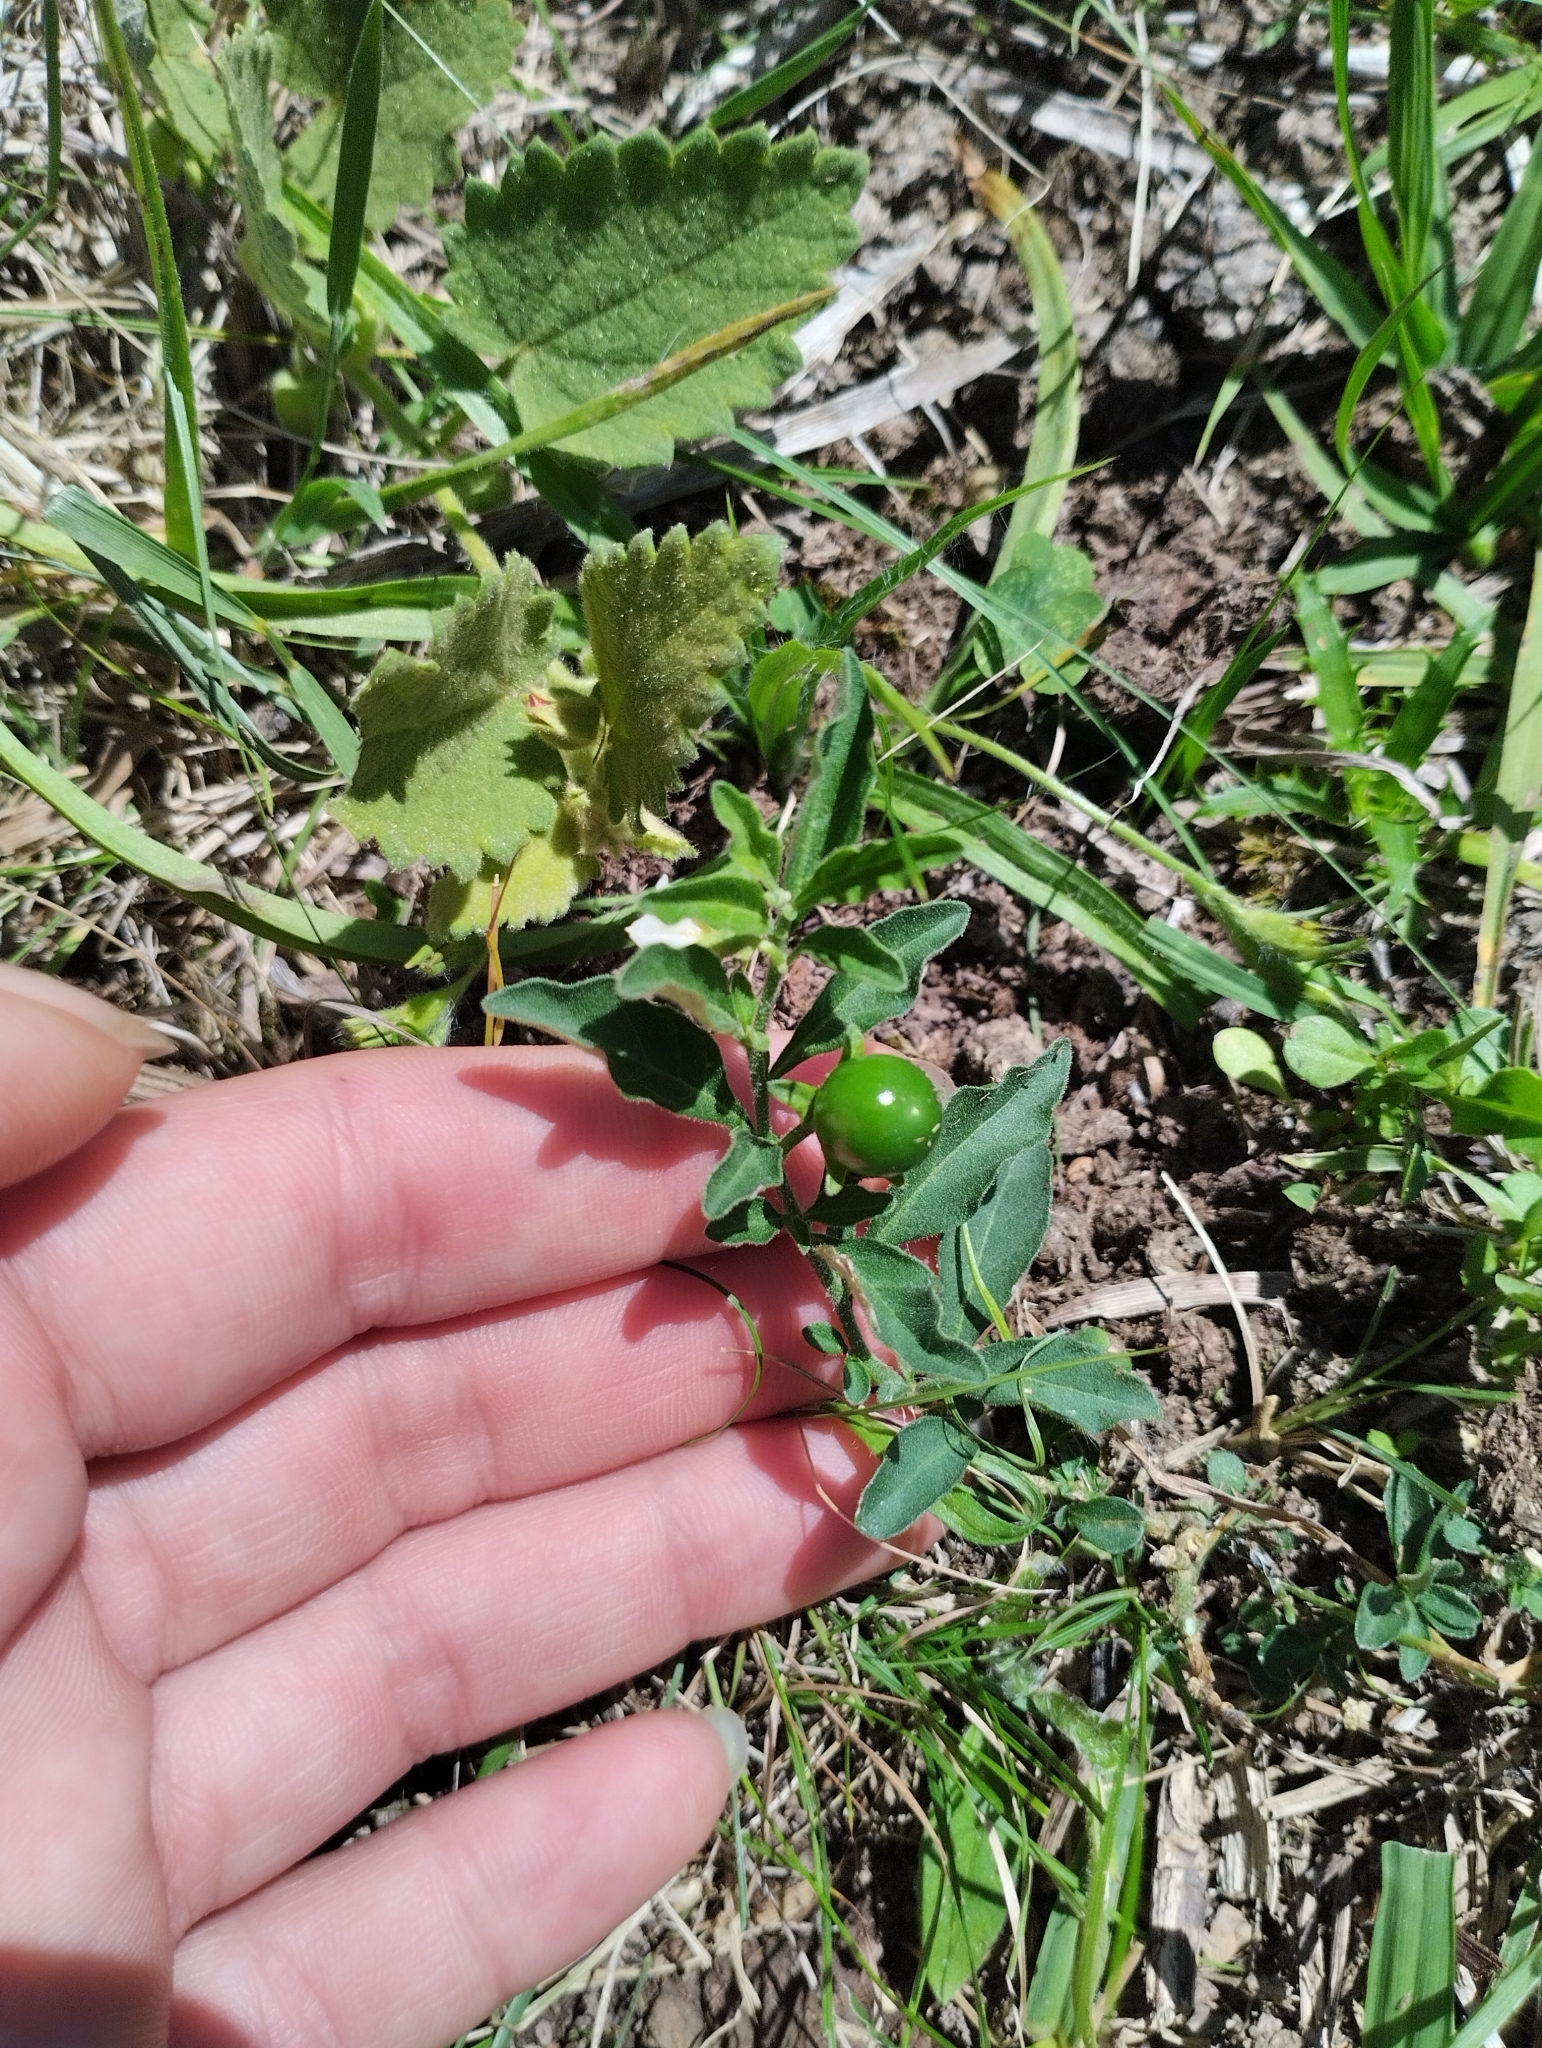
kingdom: Plantae
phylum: Tracheophyta
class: Magnoliopsida
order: Solanales
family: Solanaceae
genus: Solanum
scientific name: Solanum pseudocapsicum
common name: Jerusalem cherry
